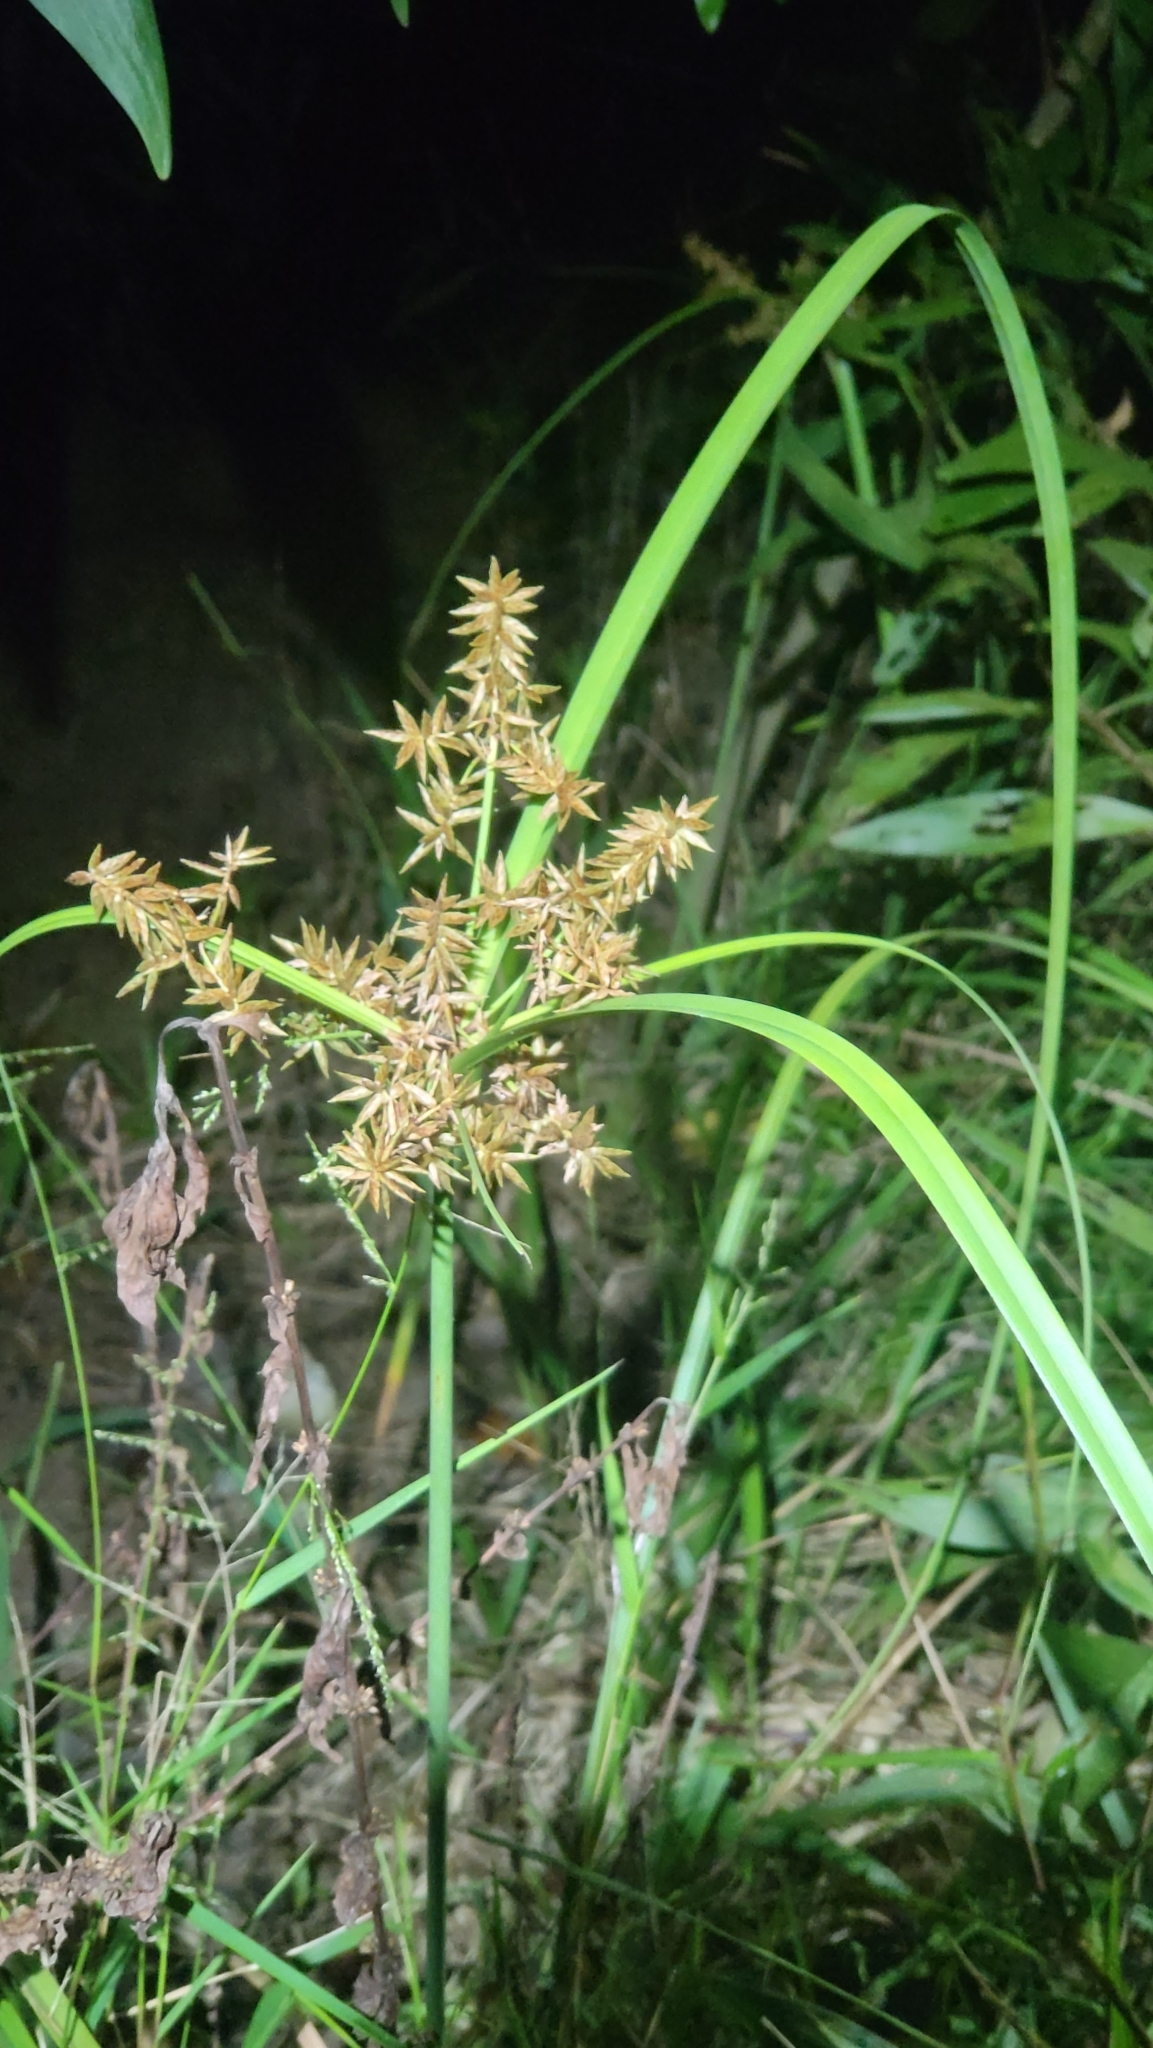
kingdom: Plantae
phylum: Tracheophyta
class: Liliopsida
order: Poales
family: Cyperaceae
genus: Cyperus
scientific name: Cyperus javanicus
